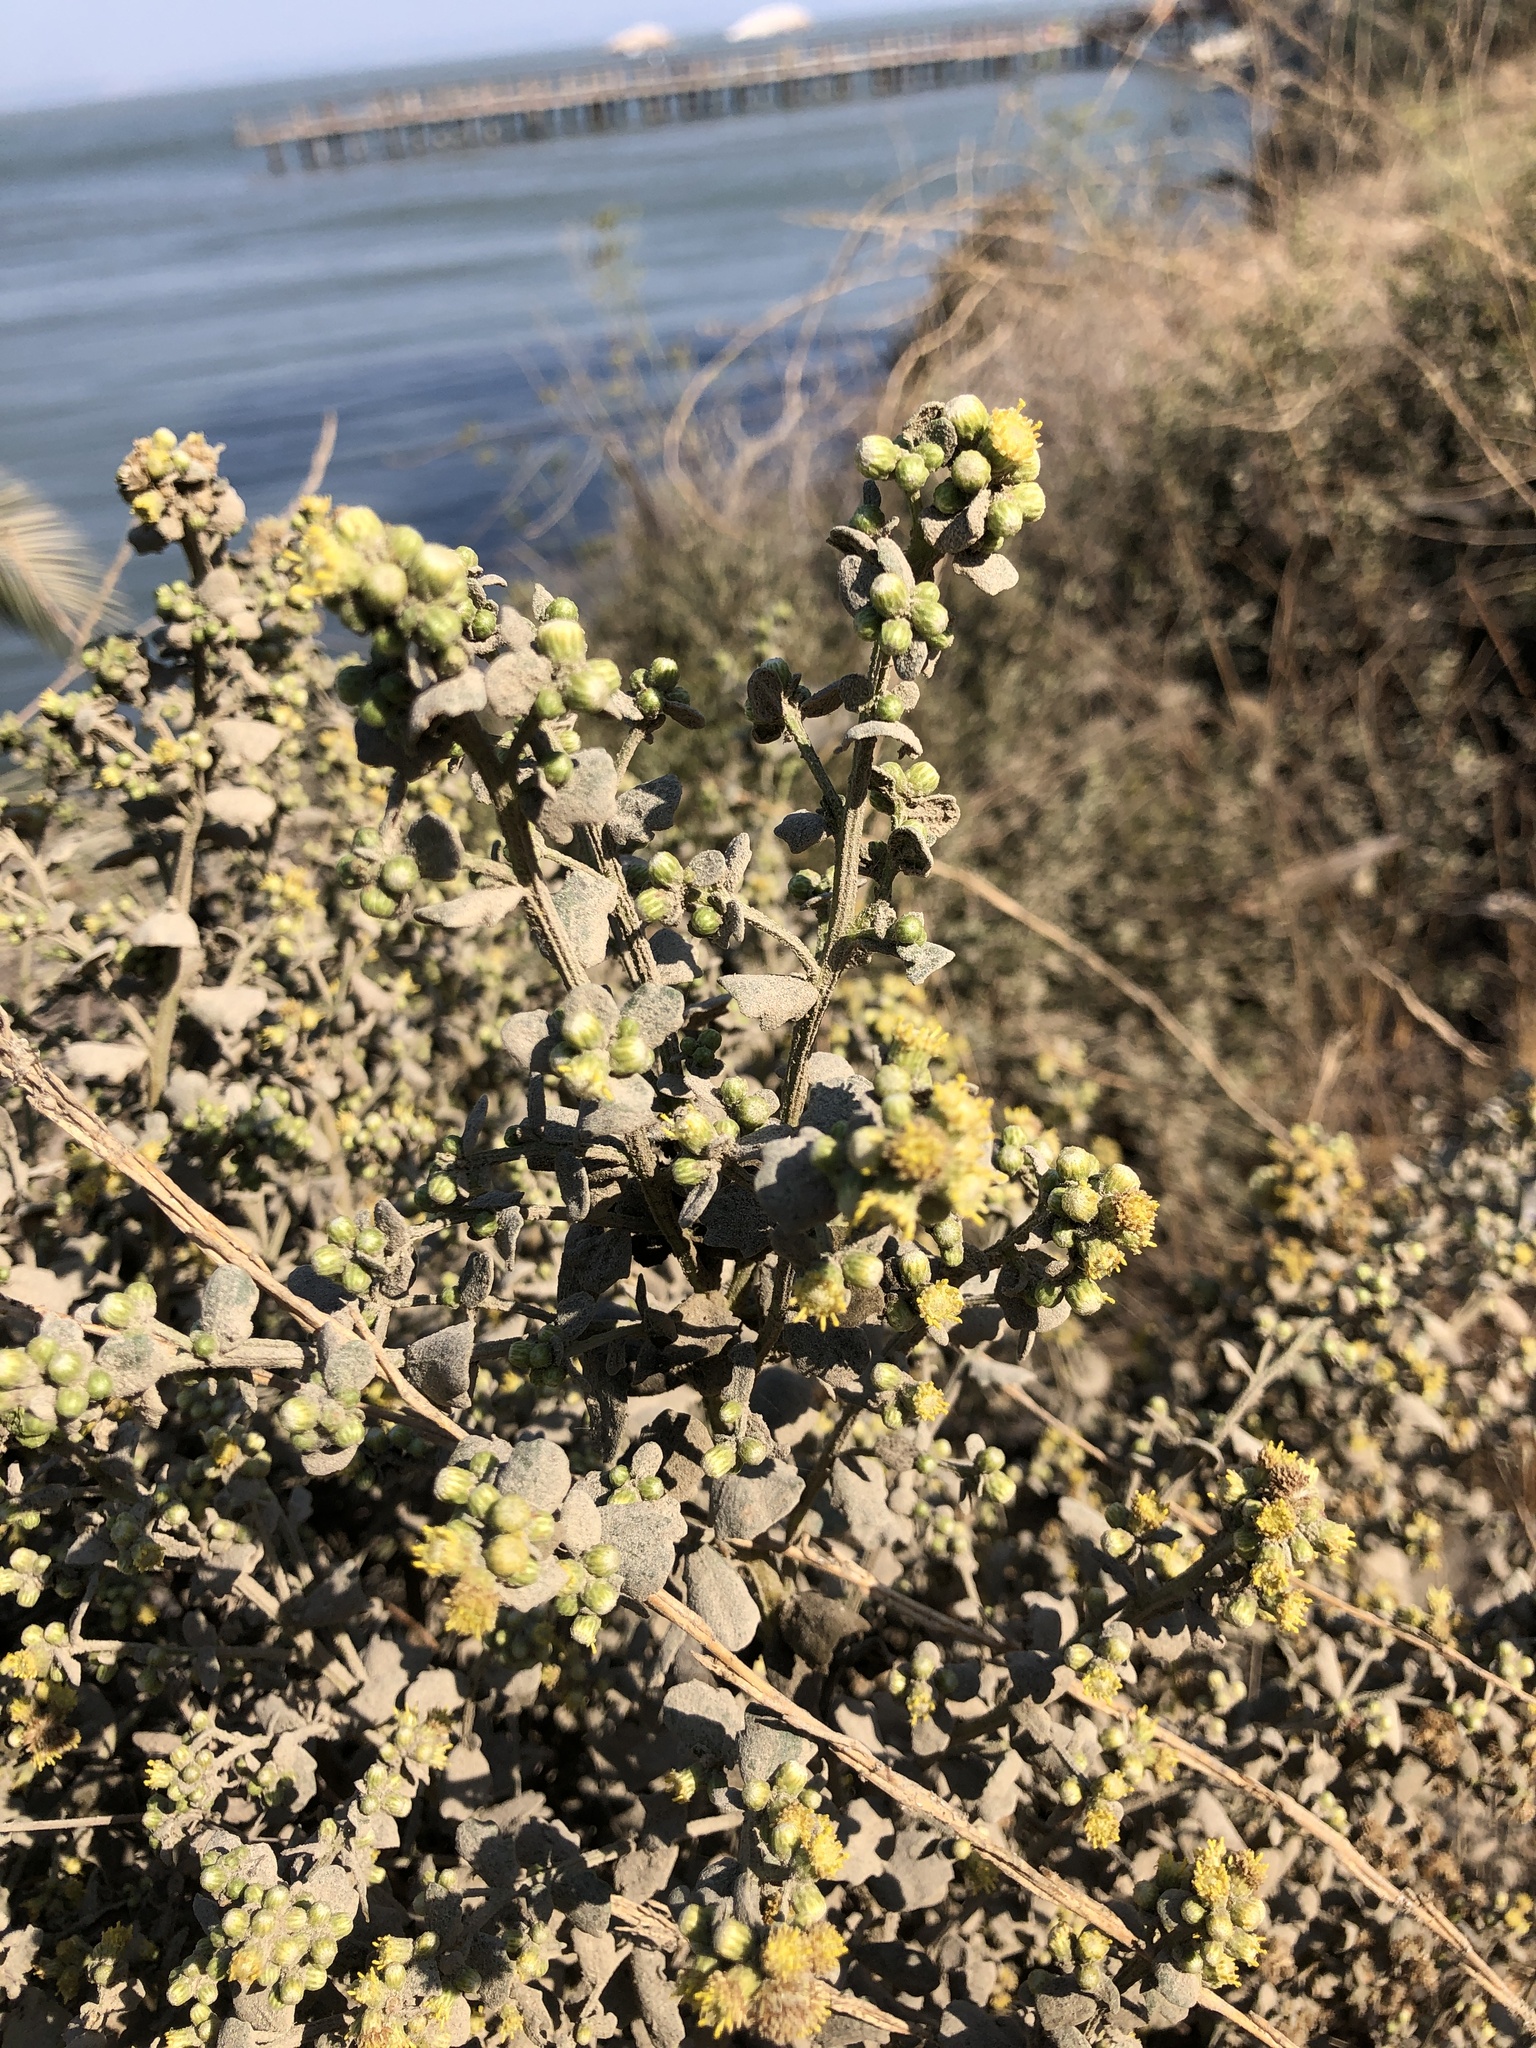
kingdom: Plantae
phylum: Tracheophyta
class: Magnoliopsida
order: Asterales
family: Asteraceae
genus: Baccharis
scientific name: Baccharis pilularis
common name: Coyotebrush
